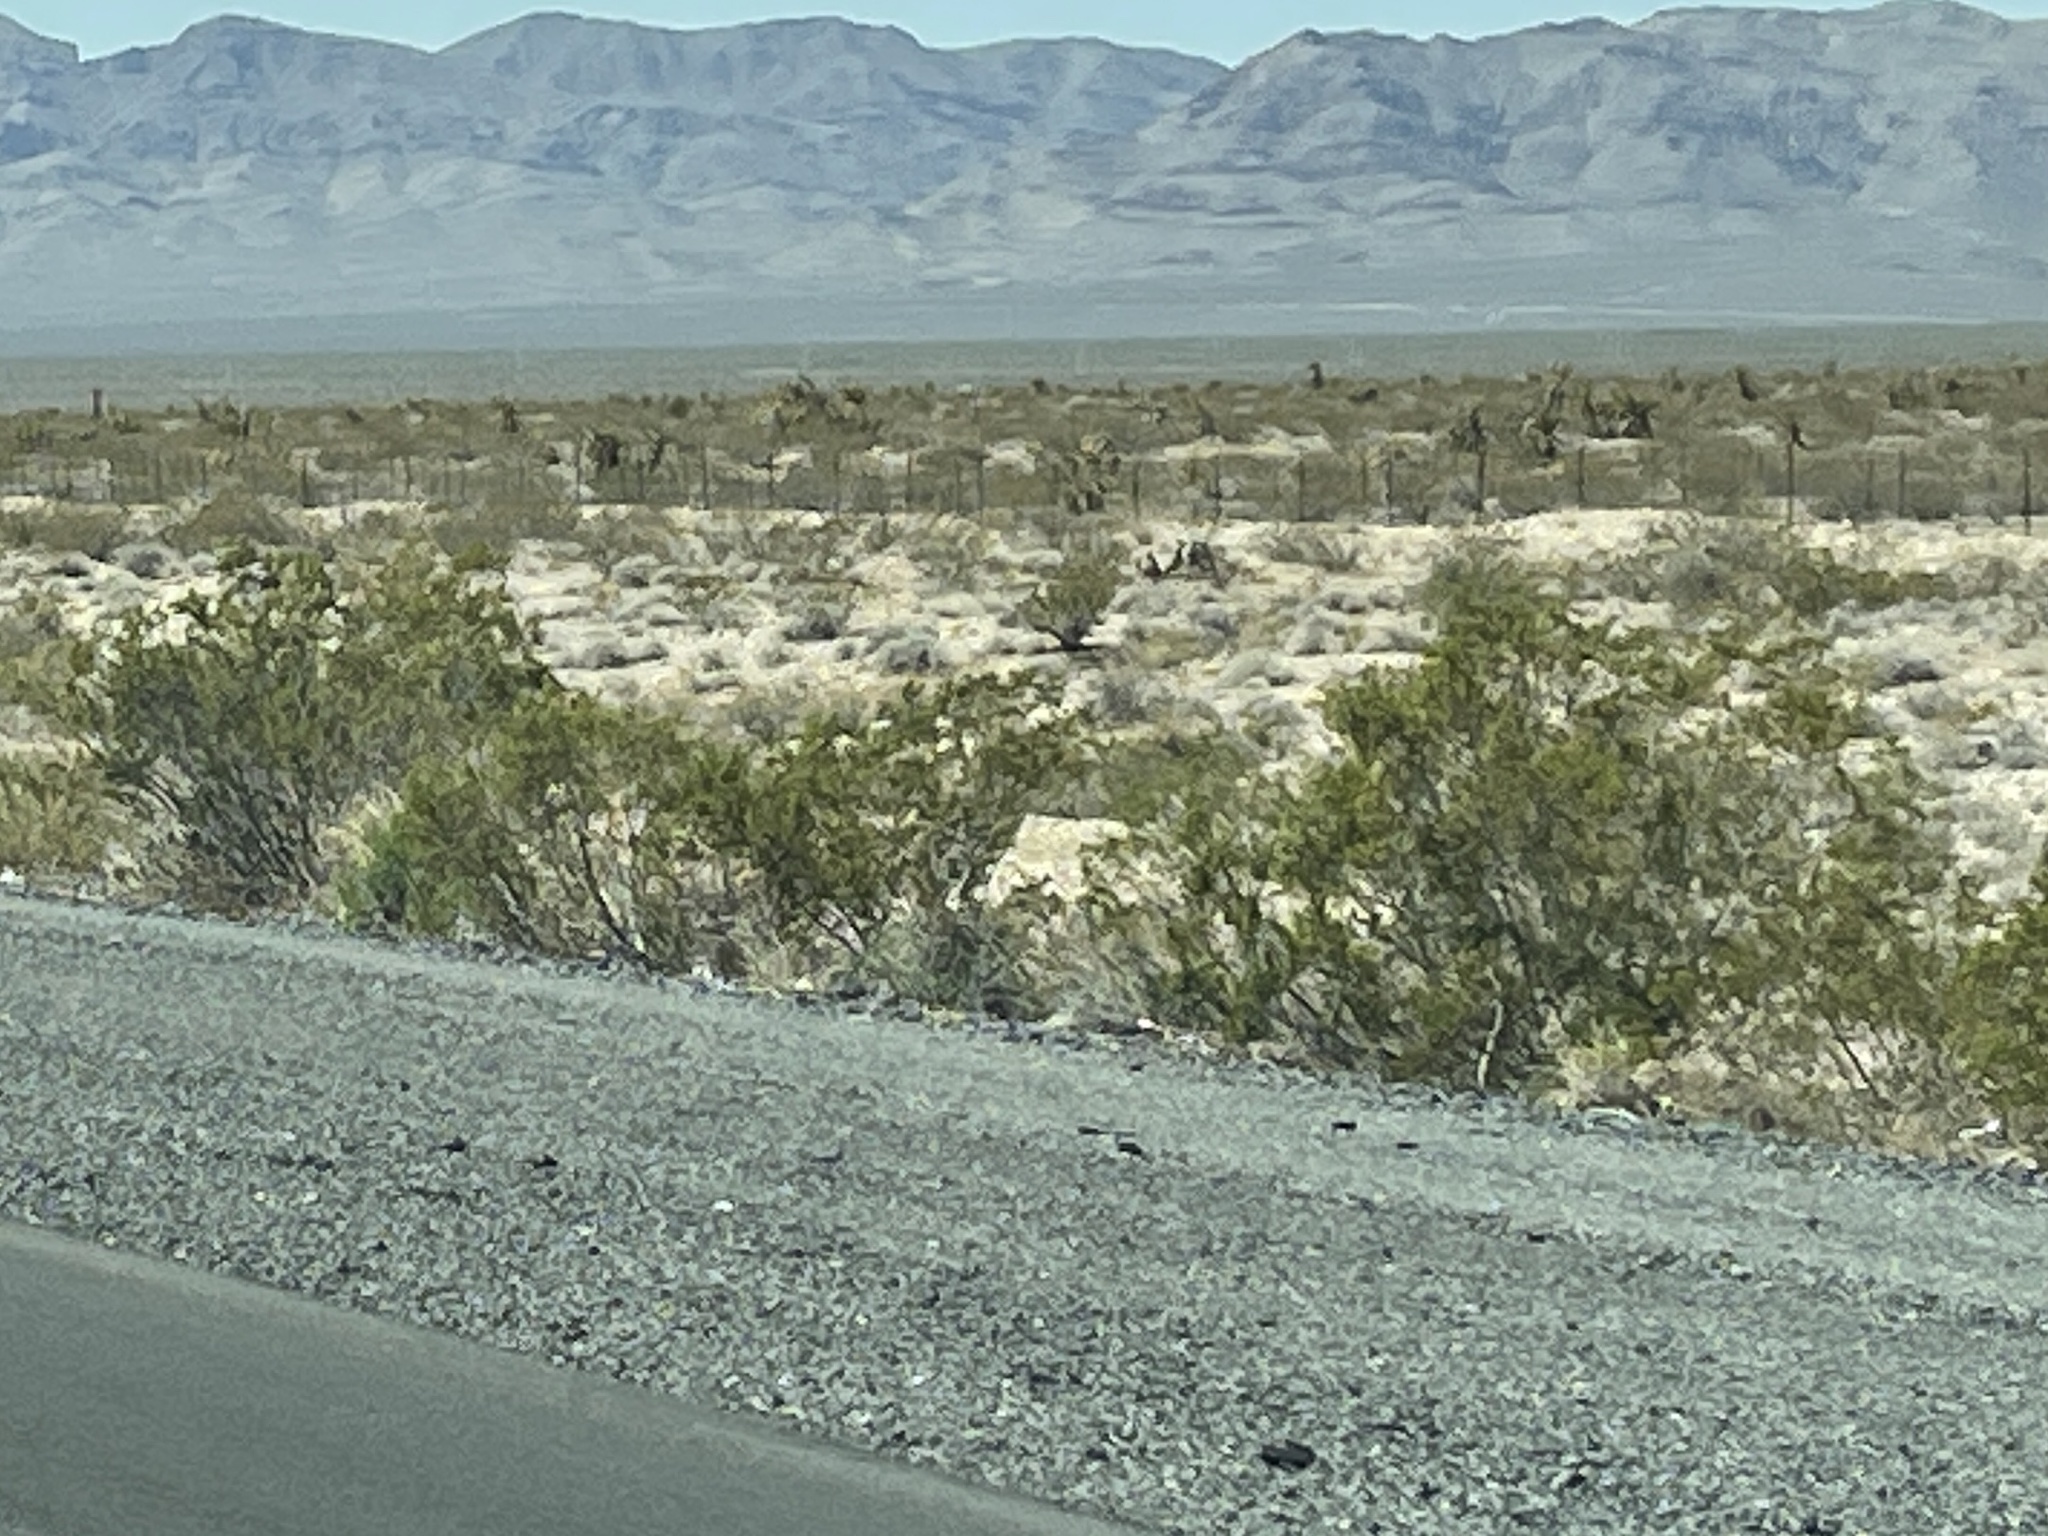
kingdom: Plantae
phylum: Tracheophyta
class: Magnoliopsida
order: Zygophyllales
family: Zygophyllaceae
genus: Larrea
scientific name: Larrea tridentata
